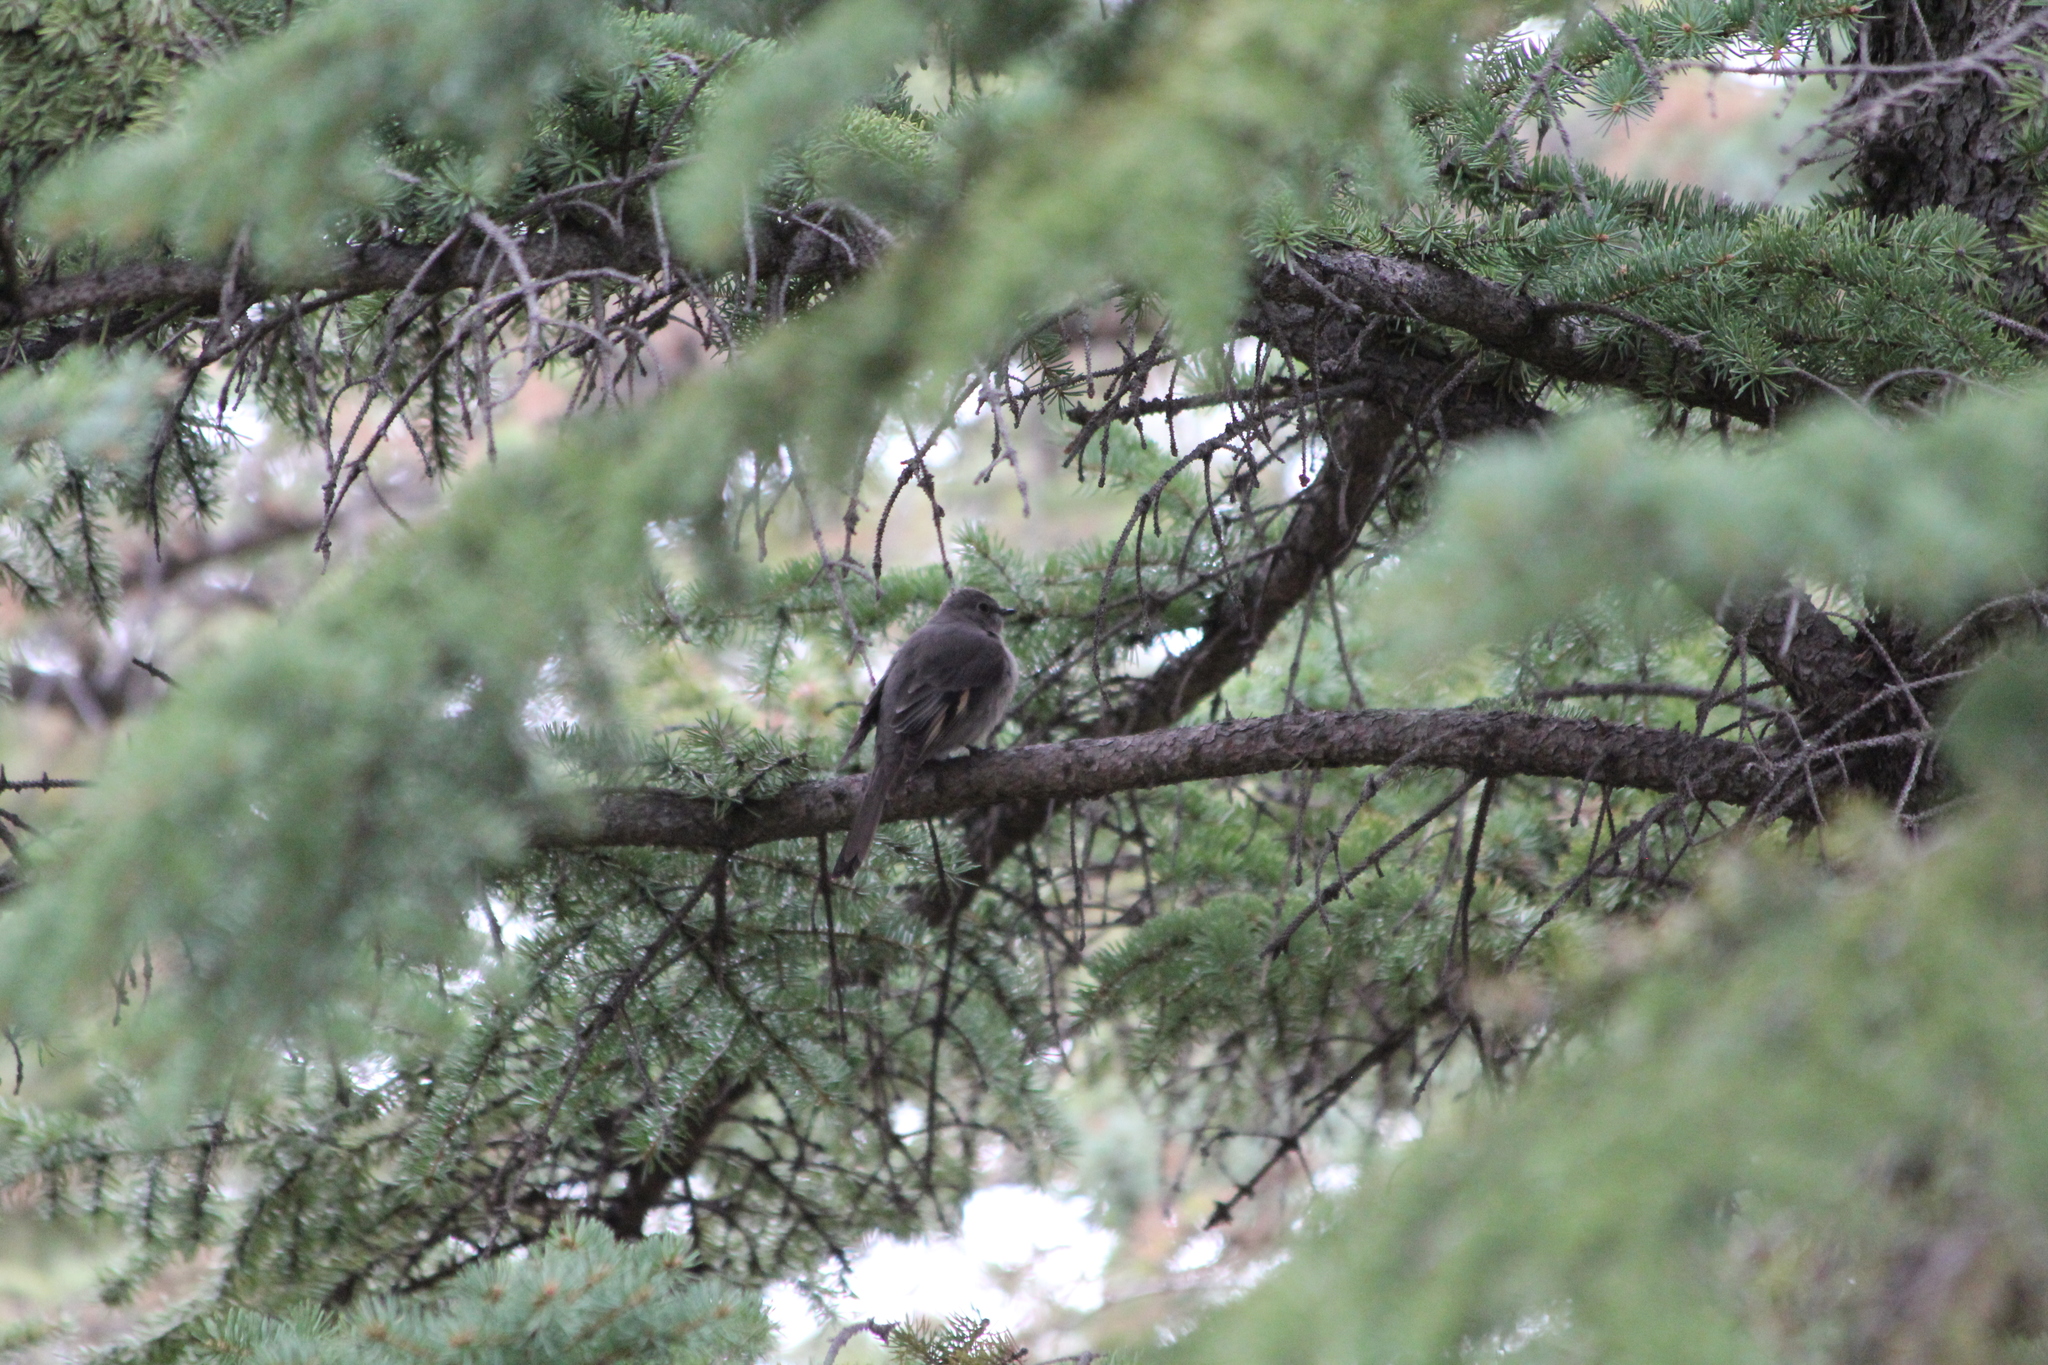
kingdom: Animalia
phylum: Chordata
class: Aves
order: Passeriformes
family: Turdidae
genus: Myadestes
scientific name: Myadestes townsendi
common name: Townsend's solitaire
